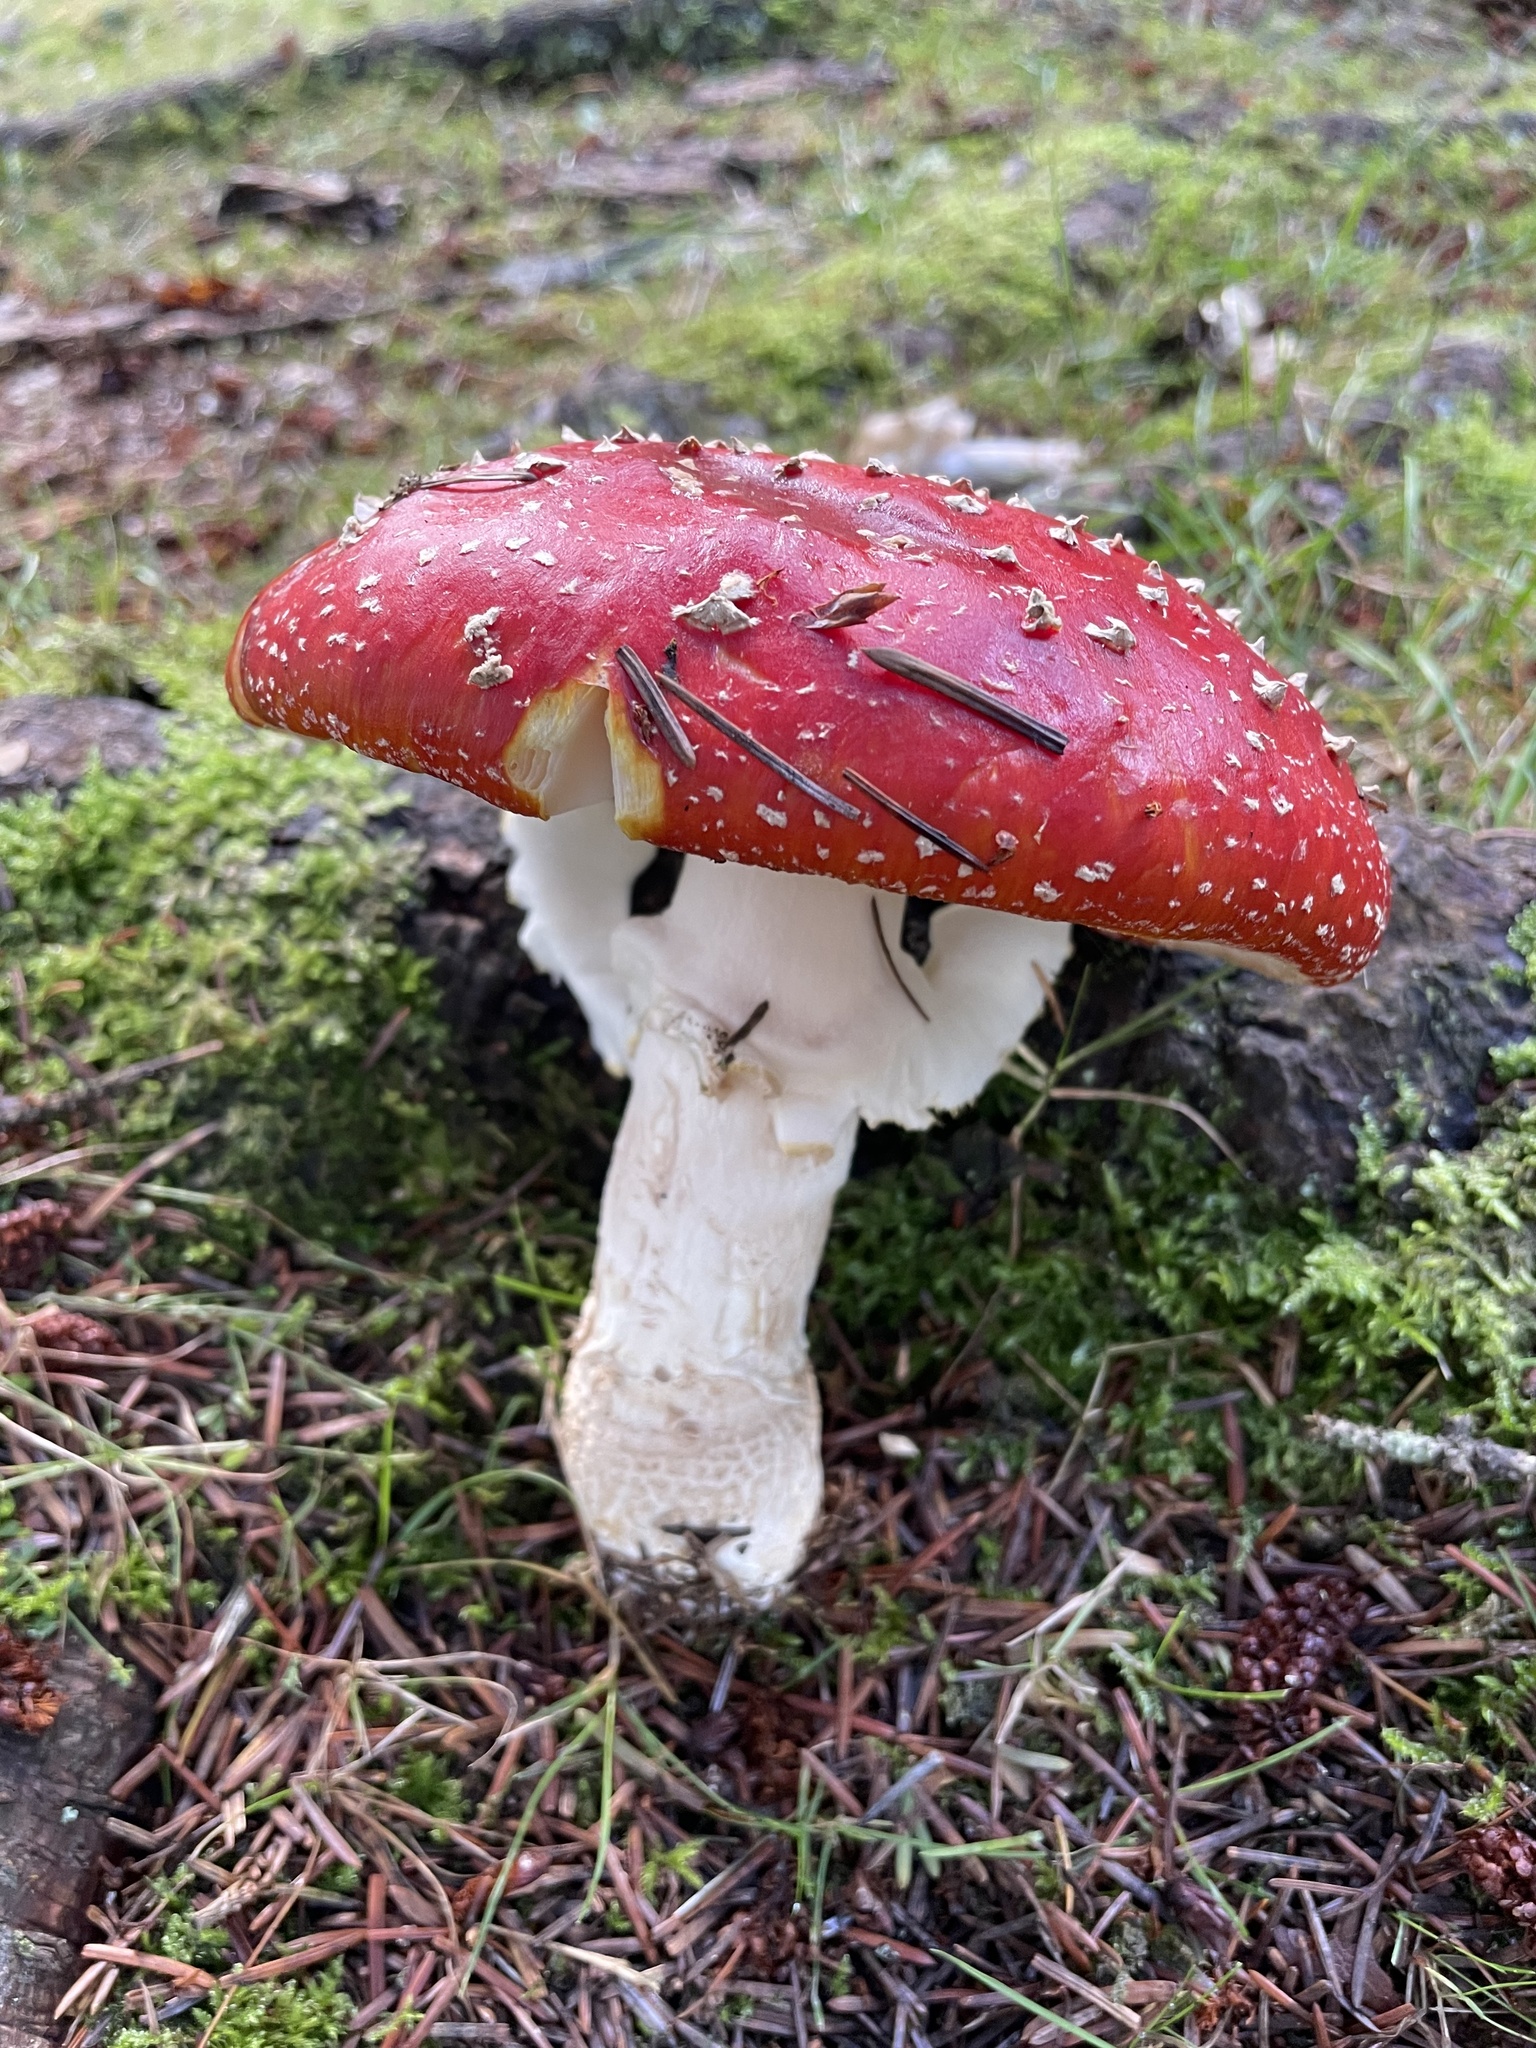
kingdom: Fungi
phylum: Basidiomycota
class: Agaricomycetes
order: Agaricales
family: Amanitaceae
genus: Amanita
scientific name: Amanita muscaria
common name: Fly agaric
